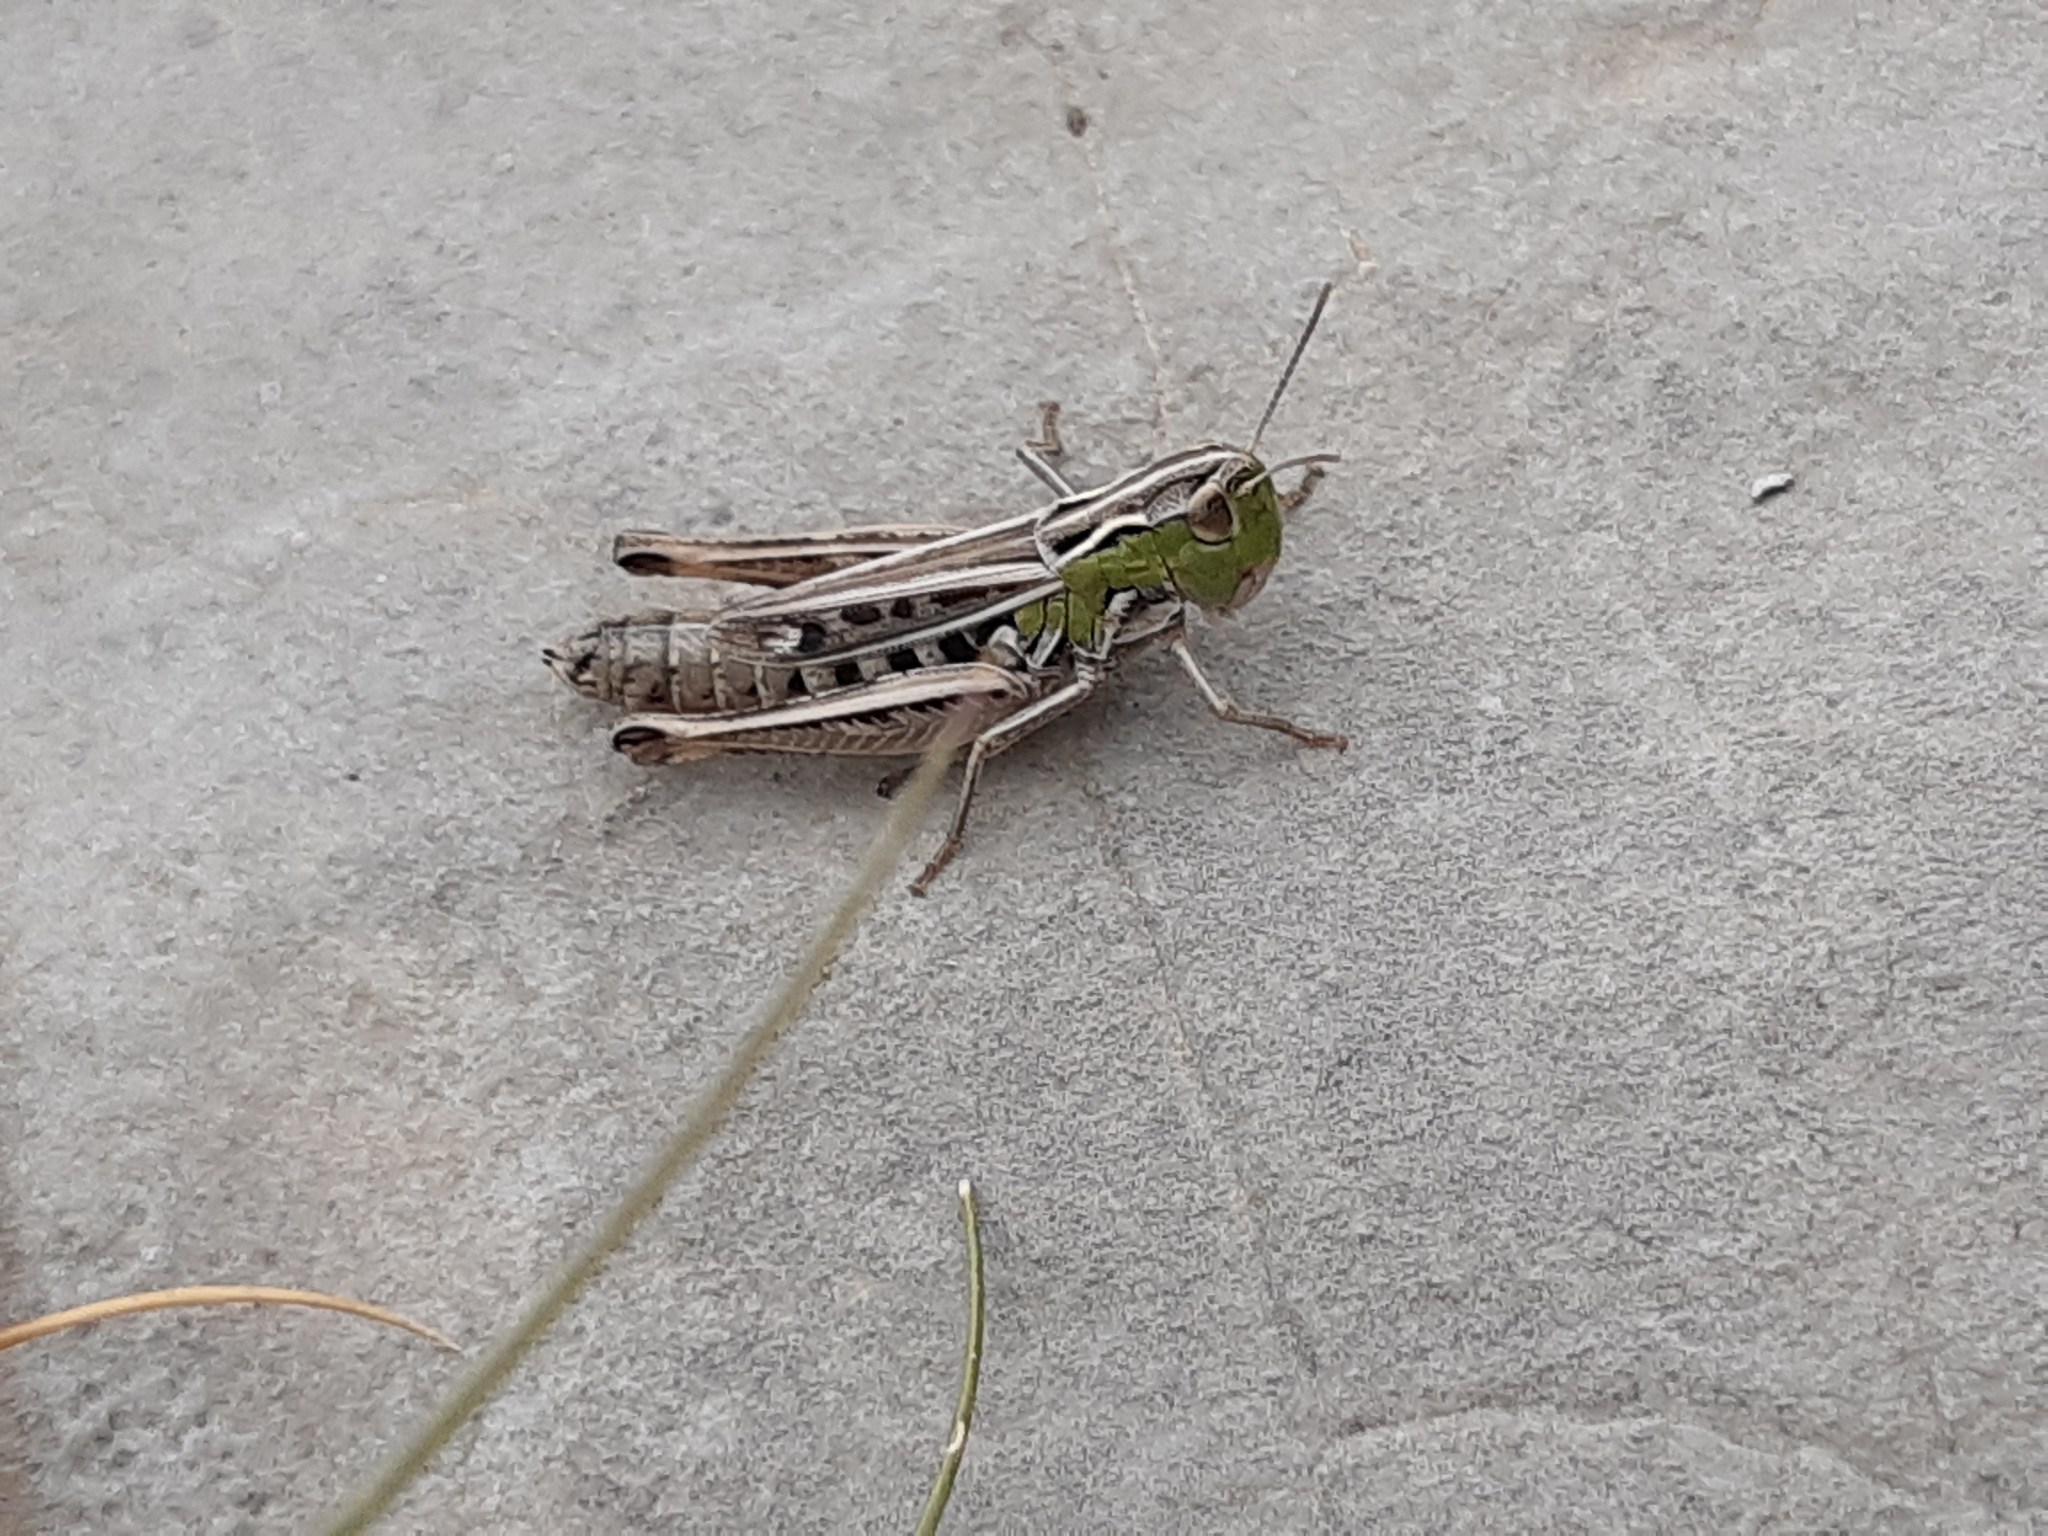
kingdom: Animalia
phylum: Arthropoda
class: Insecta
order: Orthoptera
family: Acrididae
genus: Stenobothrus
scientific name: Stenobothrus nigromaculatus
